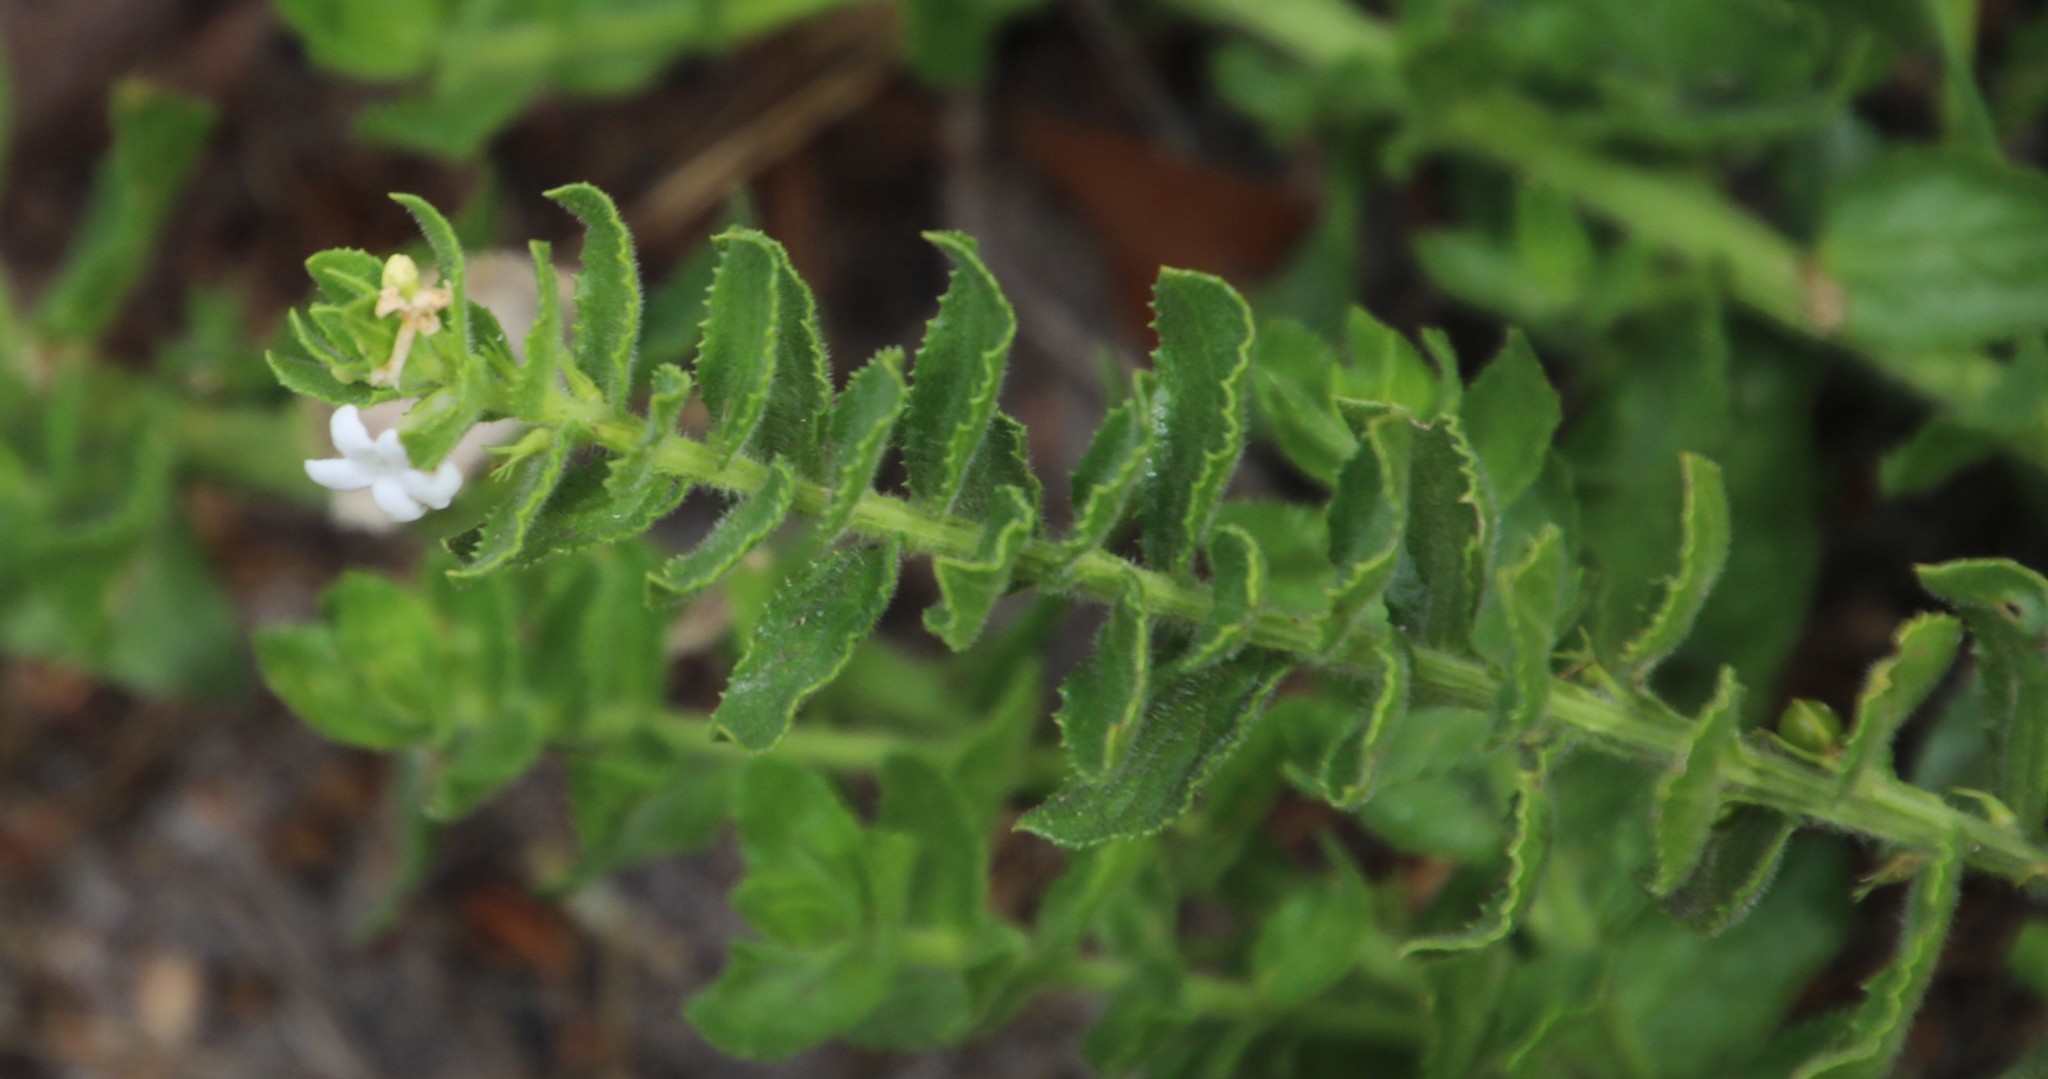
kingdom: Plantae
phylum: Tracheophyta
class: Magnoliopsida
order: Lamiales
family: Scrophulariaceae
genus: Oftia
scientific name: Oftia africana
